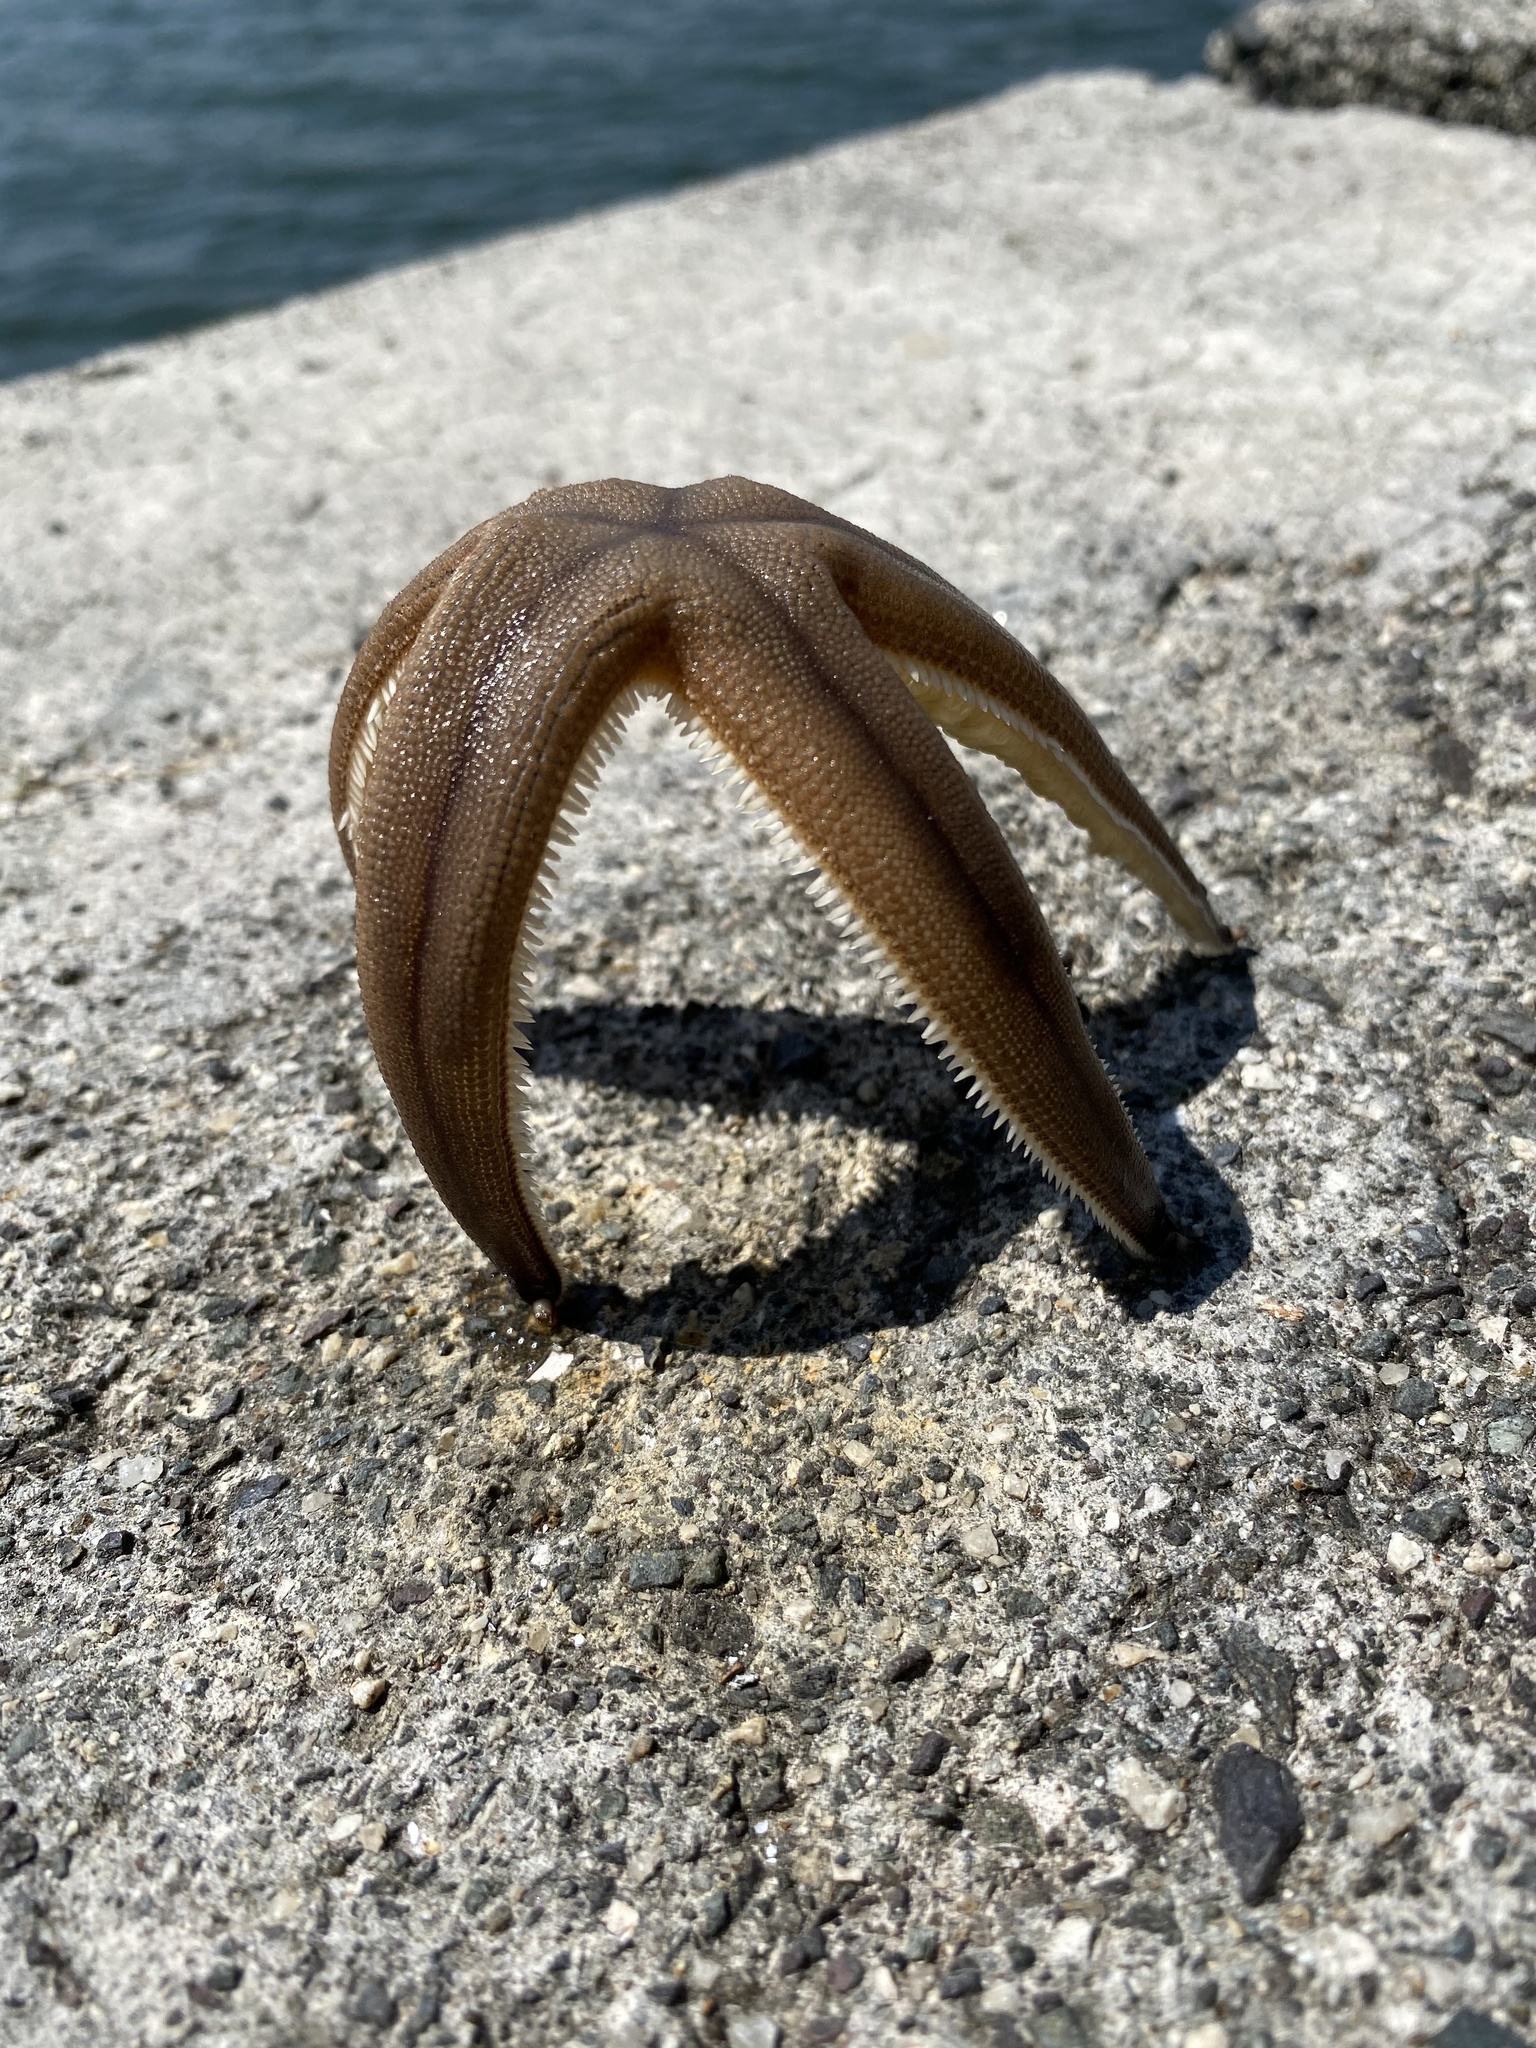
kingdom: Animalia
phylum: Echinodermata
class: Asteroidea
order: Paxillosida
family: Luidiidae
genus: Luidia
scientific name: Luidia quinaria
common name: Spiny sand seastar
